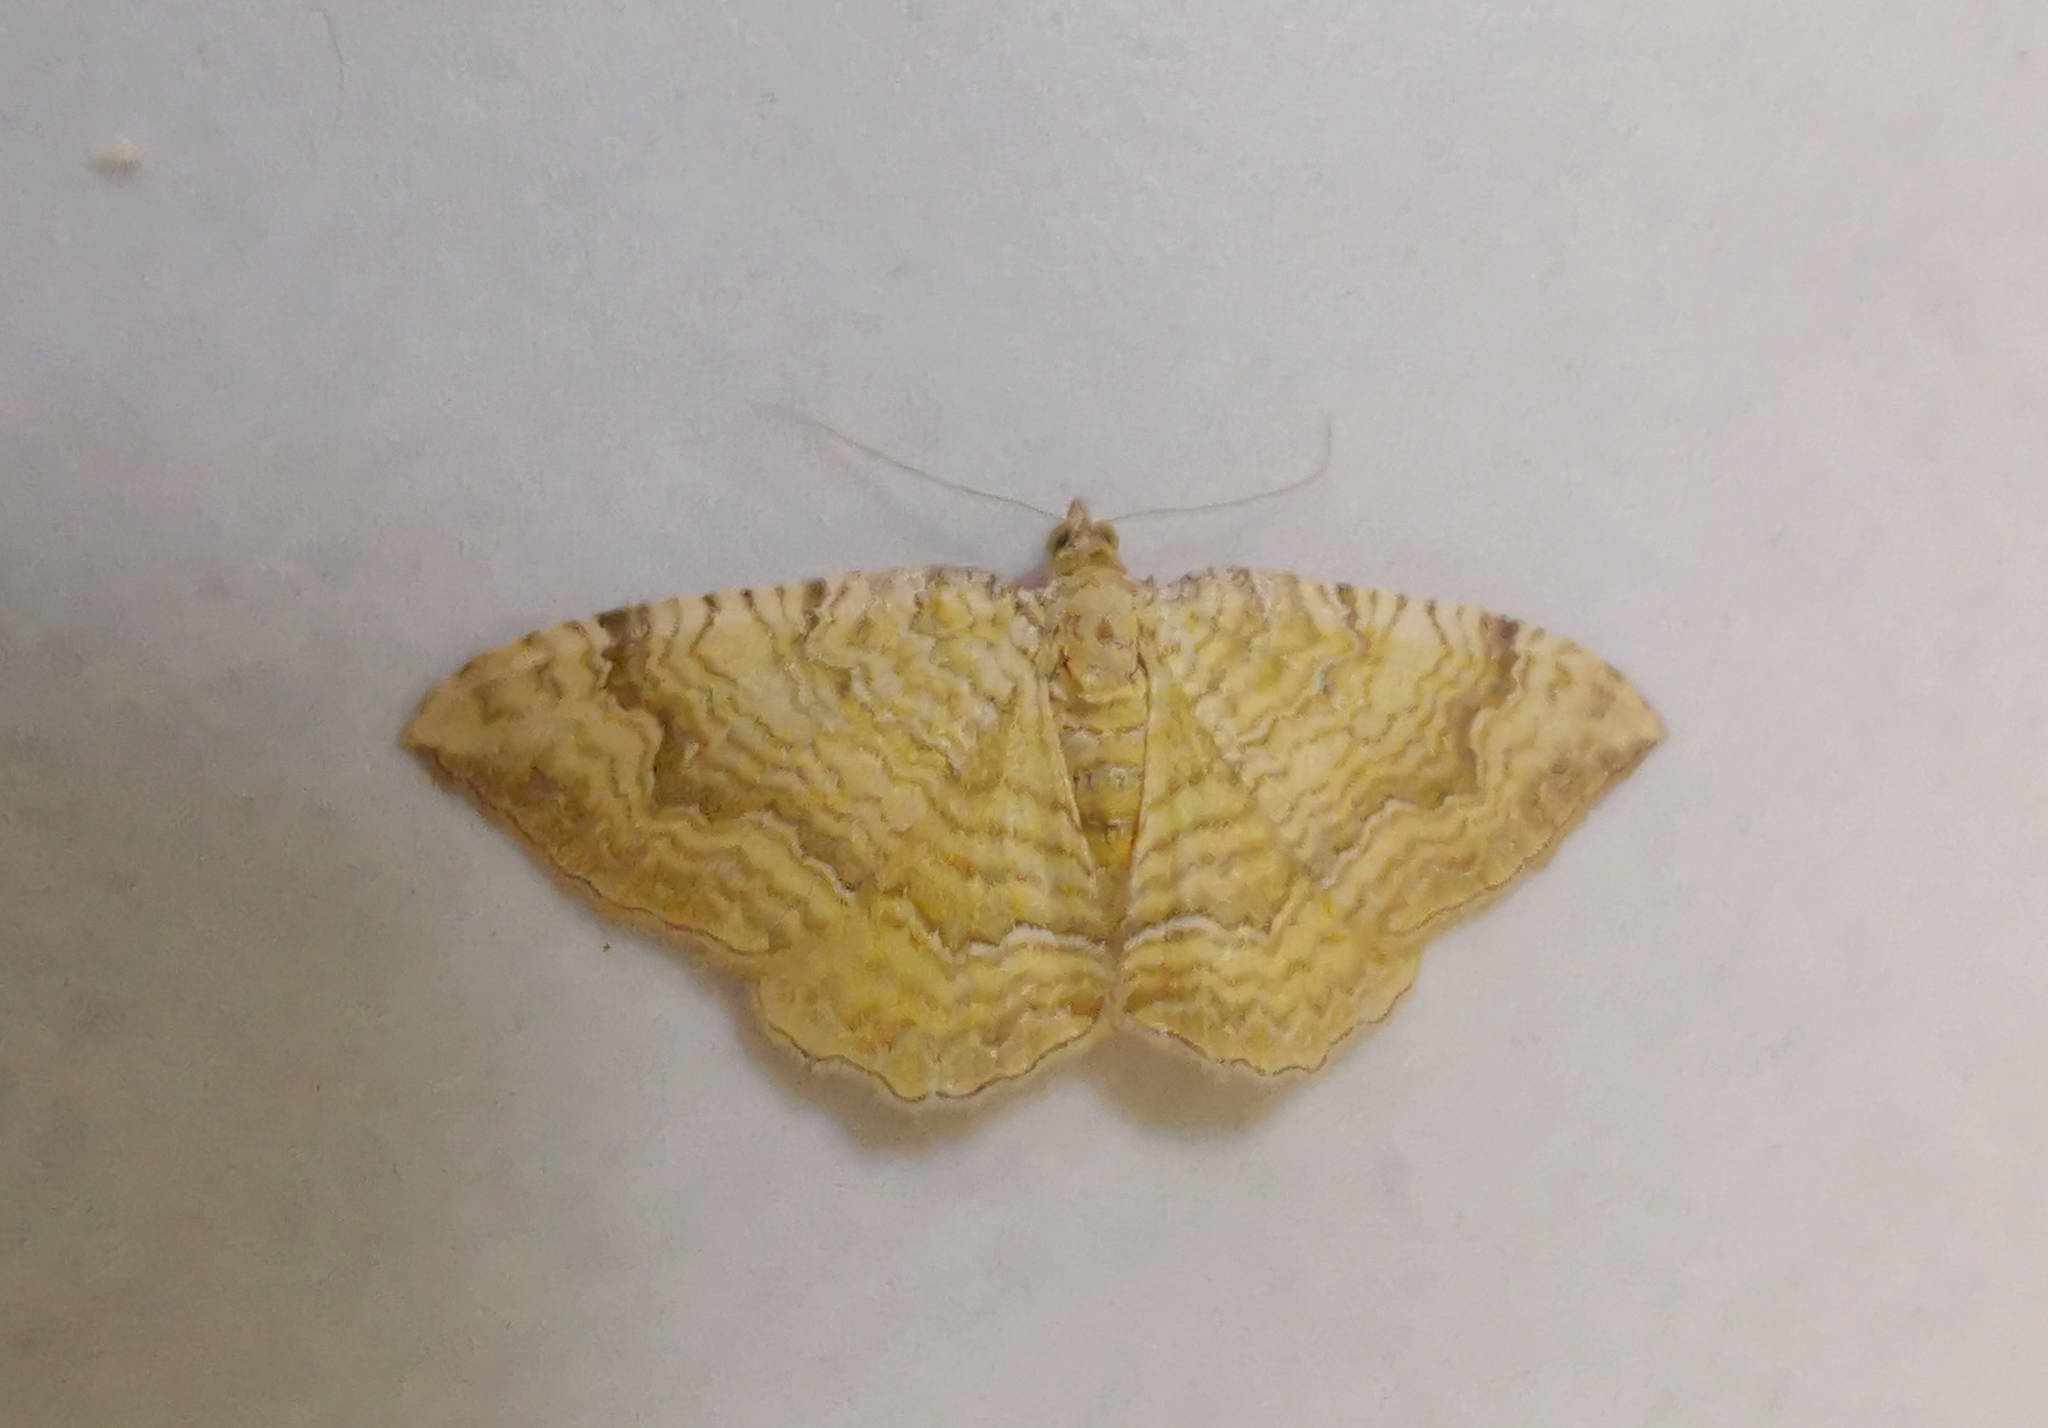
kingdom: Animalia
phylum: Arthropoda
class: Insecta
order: Lepidoptera
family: Geometridae
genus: Camptogramma
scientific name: Camptogramma bilineata
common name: Yellow shell
